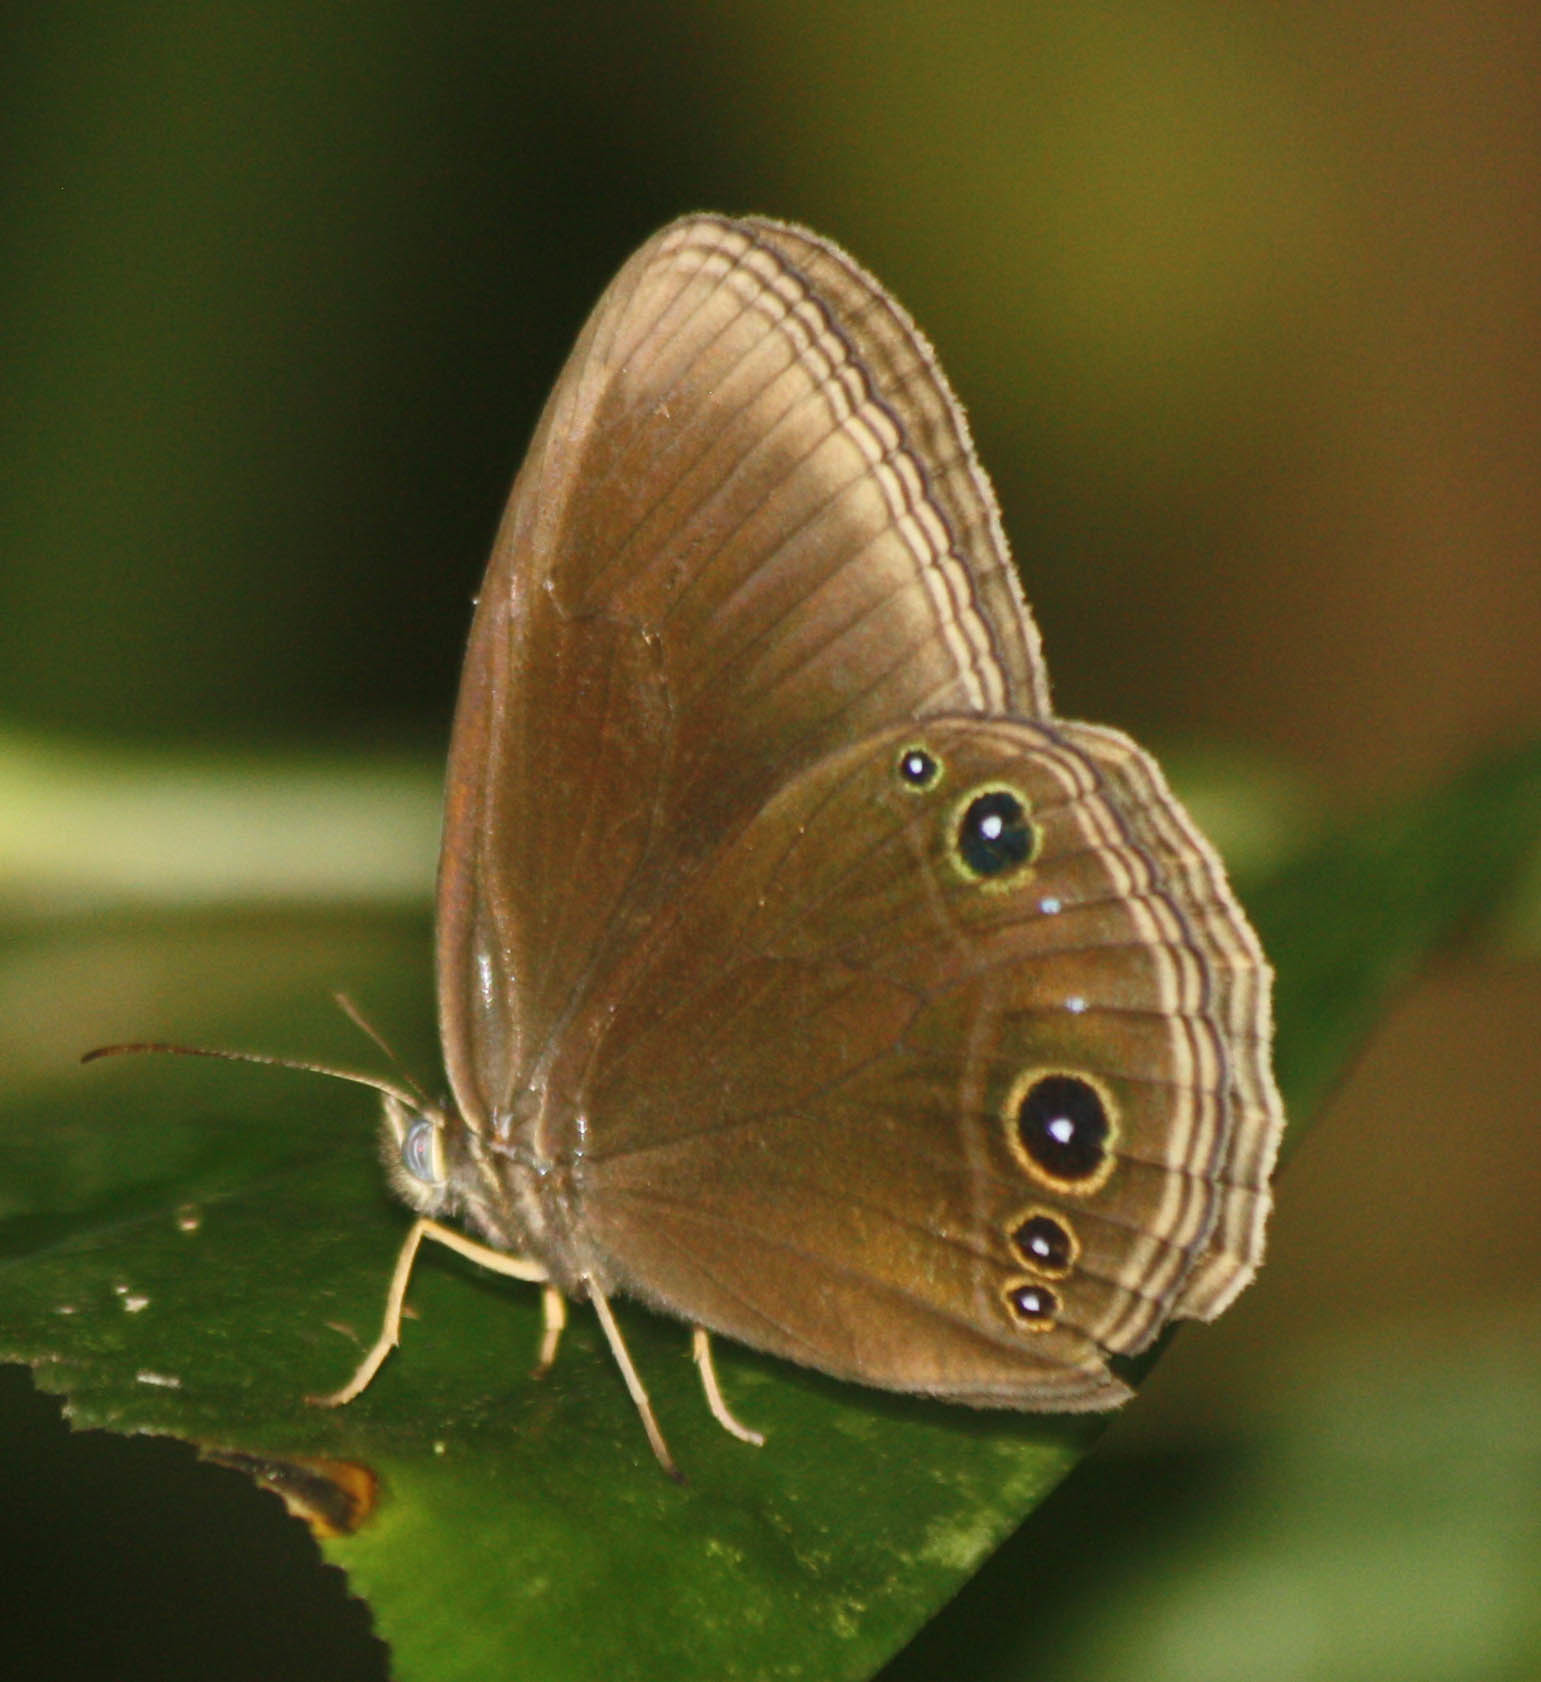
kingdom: Animalia
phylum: Arthropoda
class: Insecta
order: Lepidoptera
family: Nymphalidae
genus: Zipaetis
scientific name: Zipaetis unipupillata
